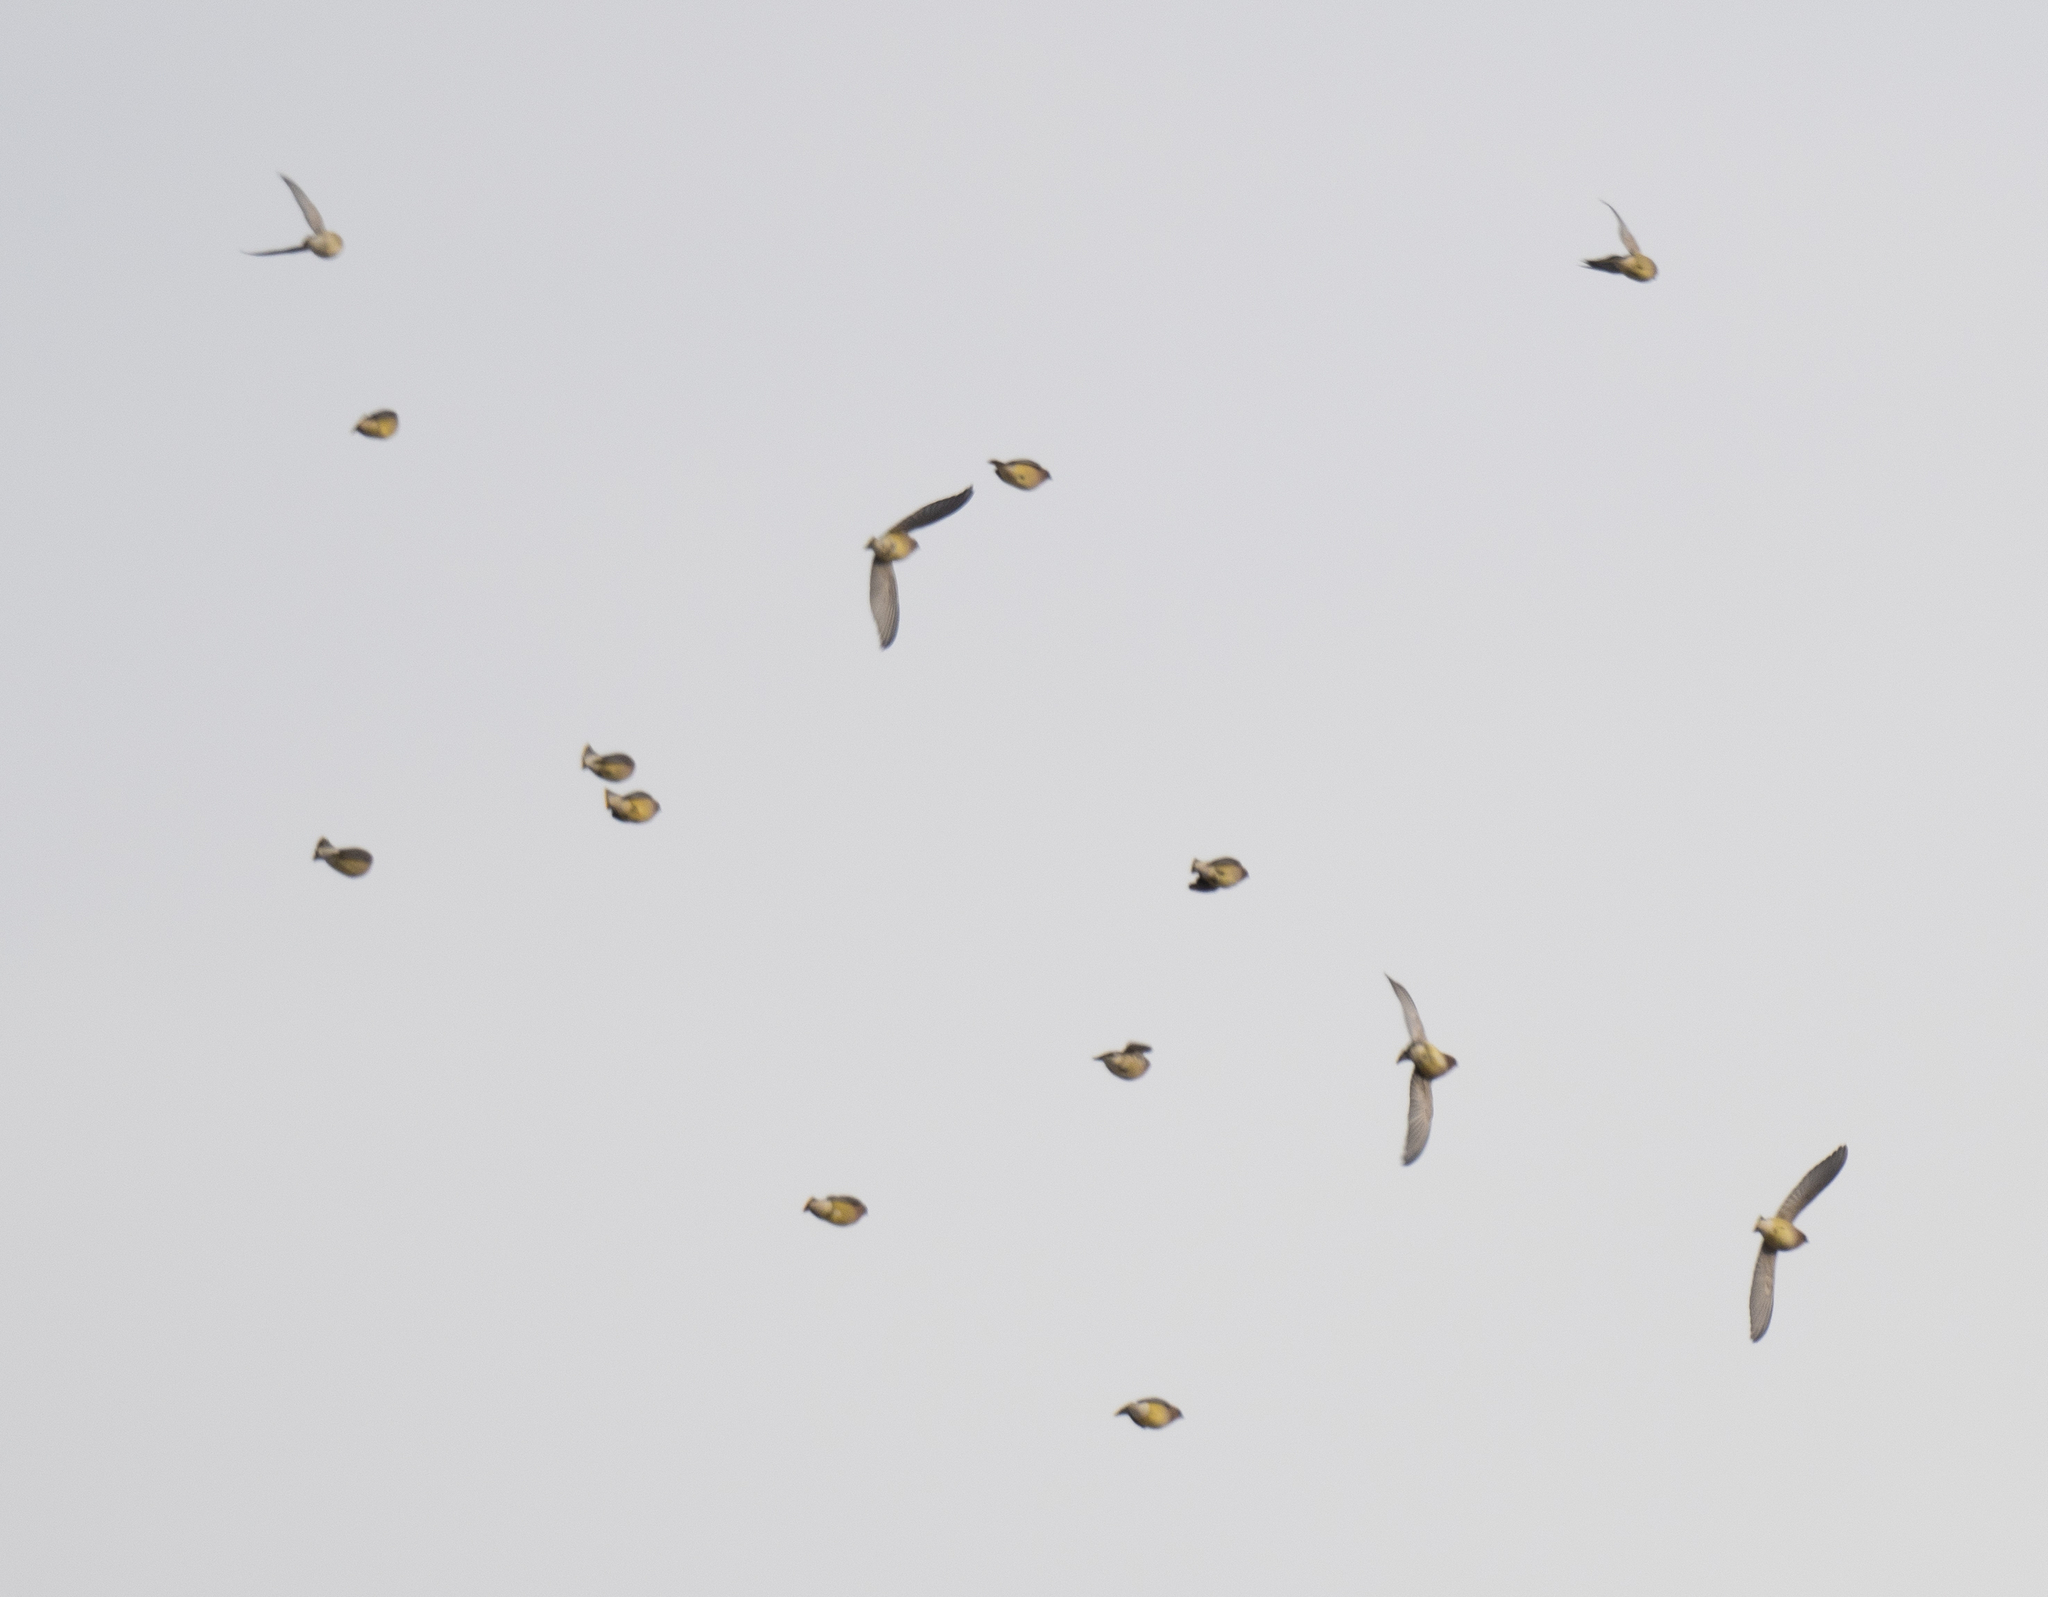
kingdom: Animalia
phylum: Chordata
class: Aves
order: Passeriformes
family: Bombycillidae
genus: Bombycilla
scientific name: Bombycilla cedrorum
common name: Cedar waxwing
